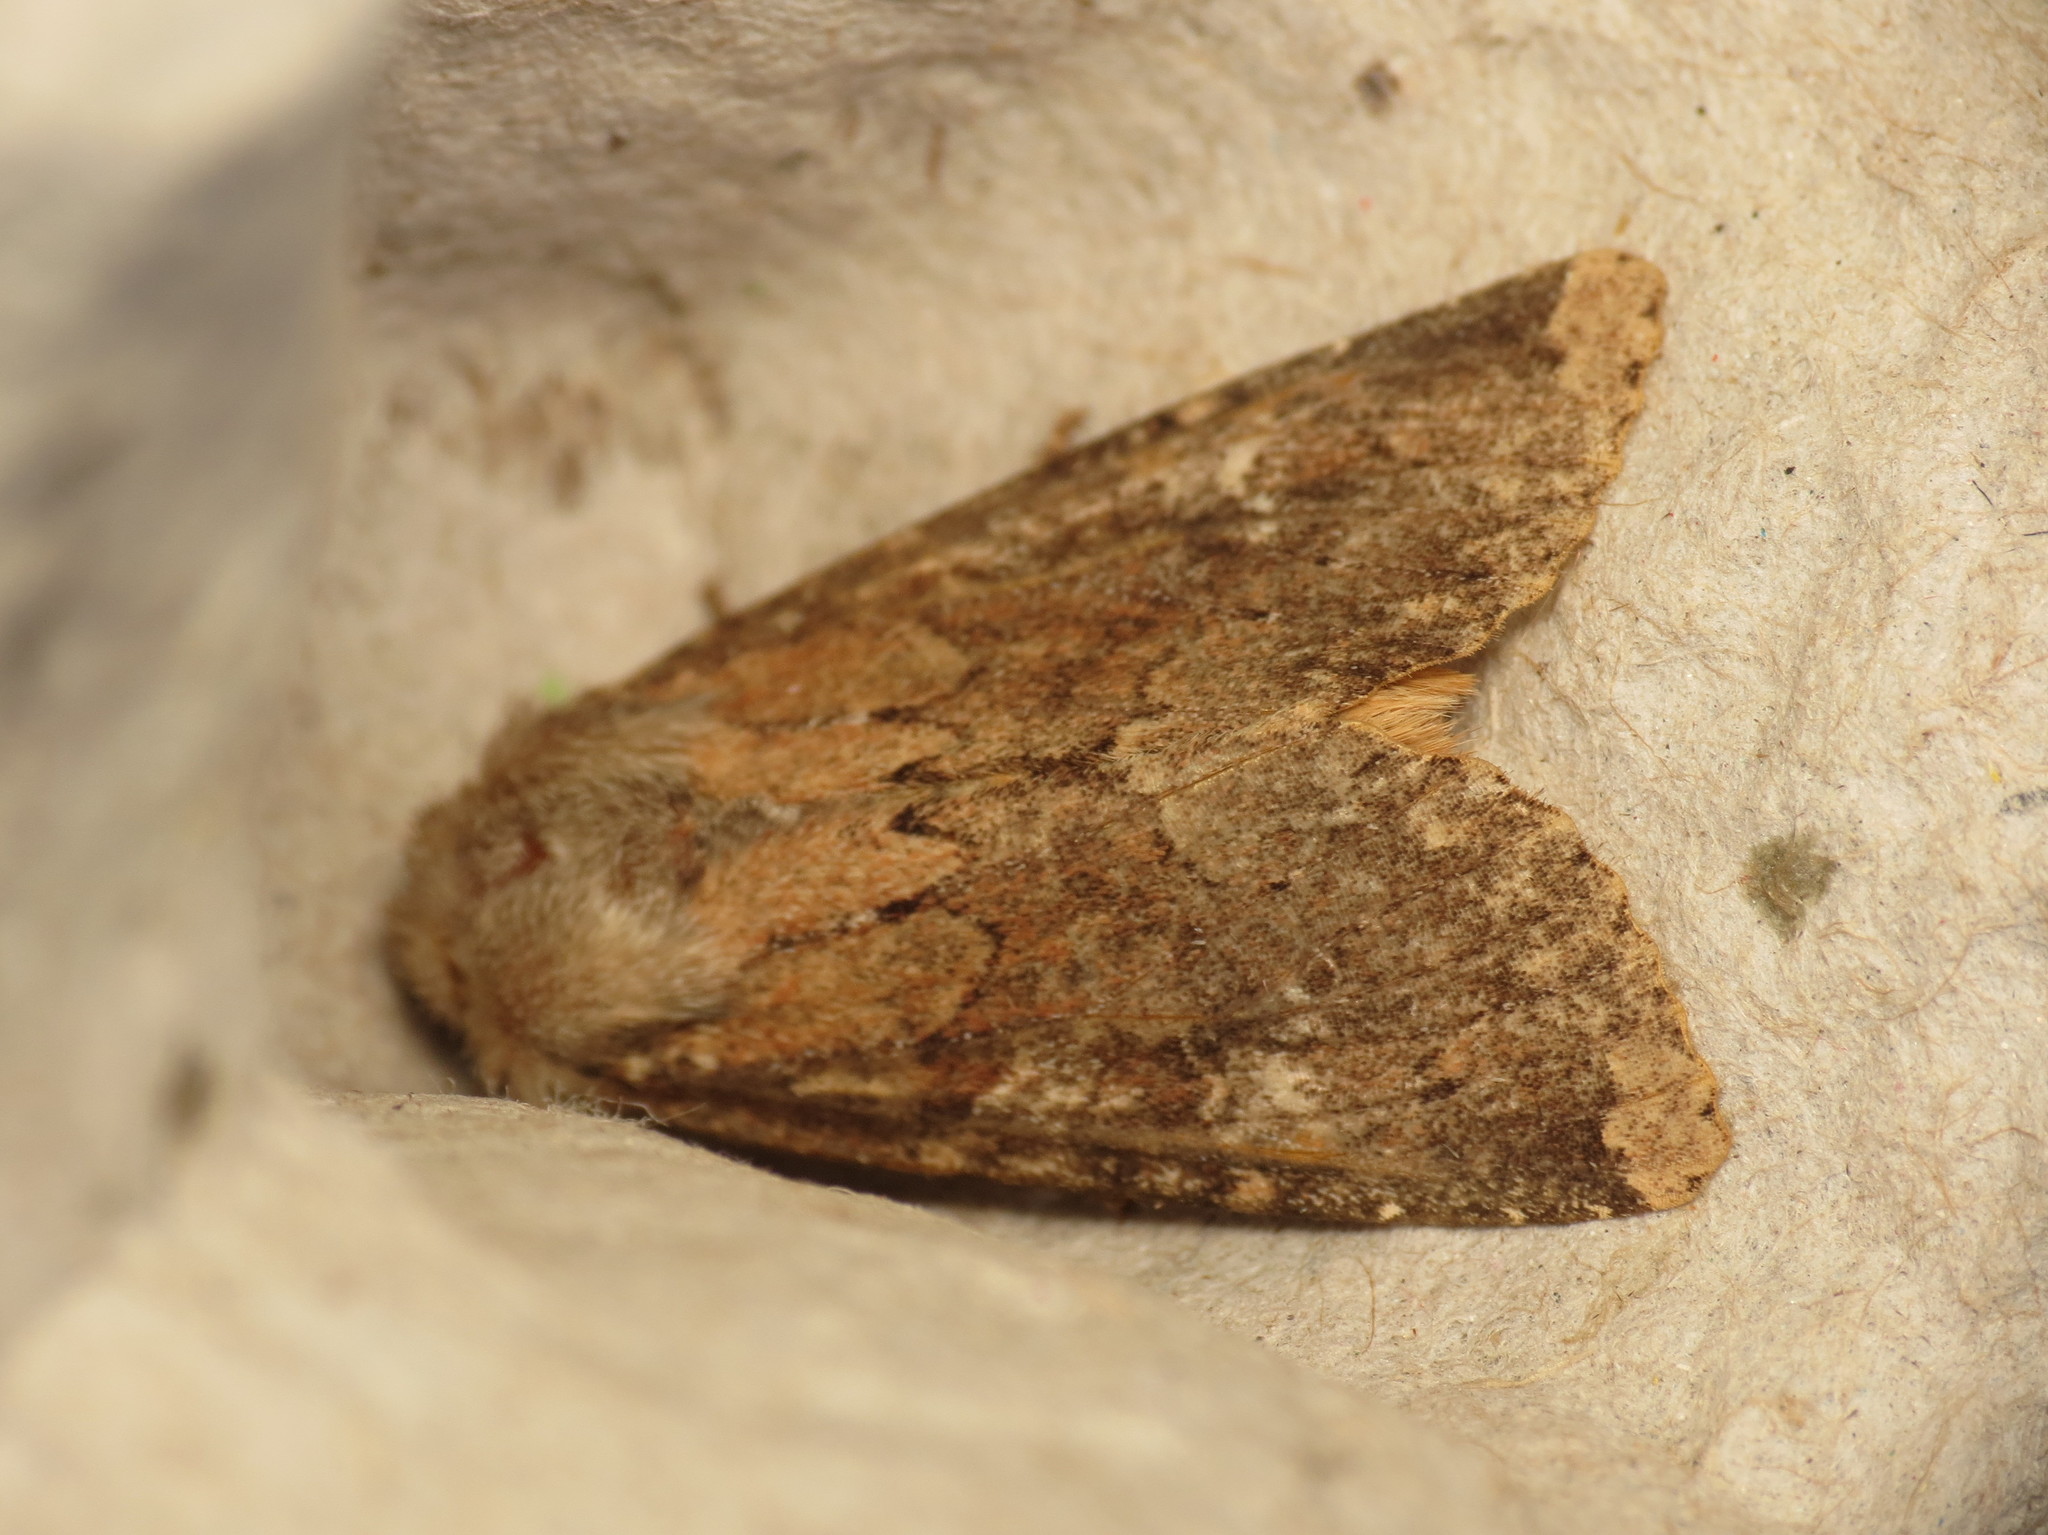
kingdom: Animalia
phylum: Arthropoda
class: Insecta
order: Lepidoptera
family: Noctuidae
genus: Apamea
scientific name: Apamea lateritia
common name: Scarce brindle
